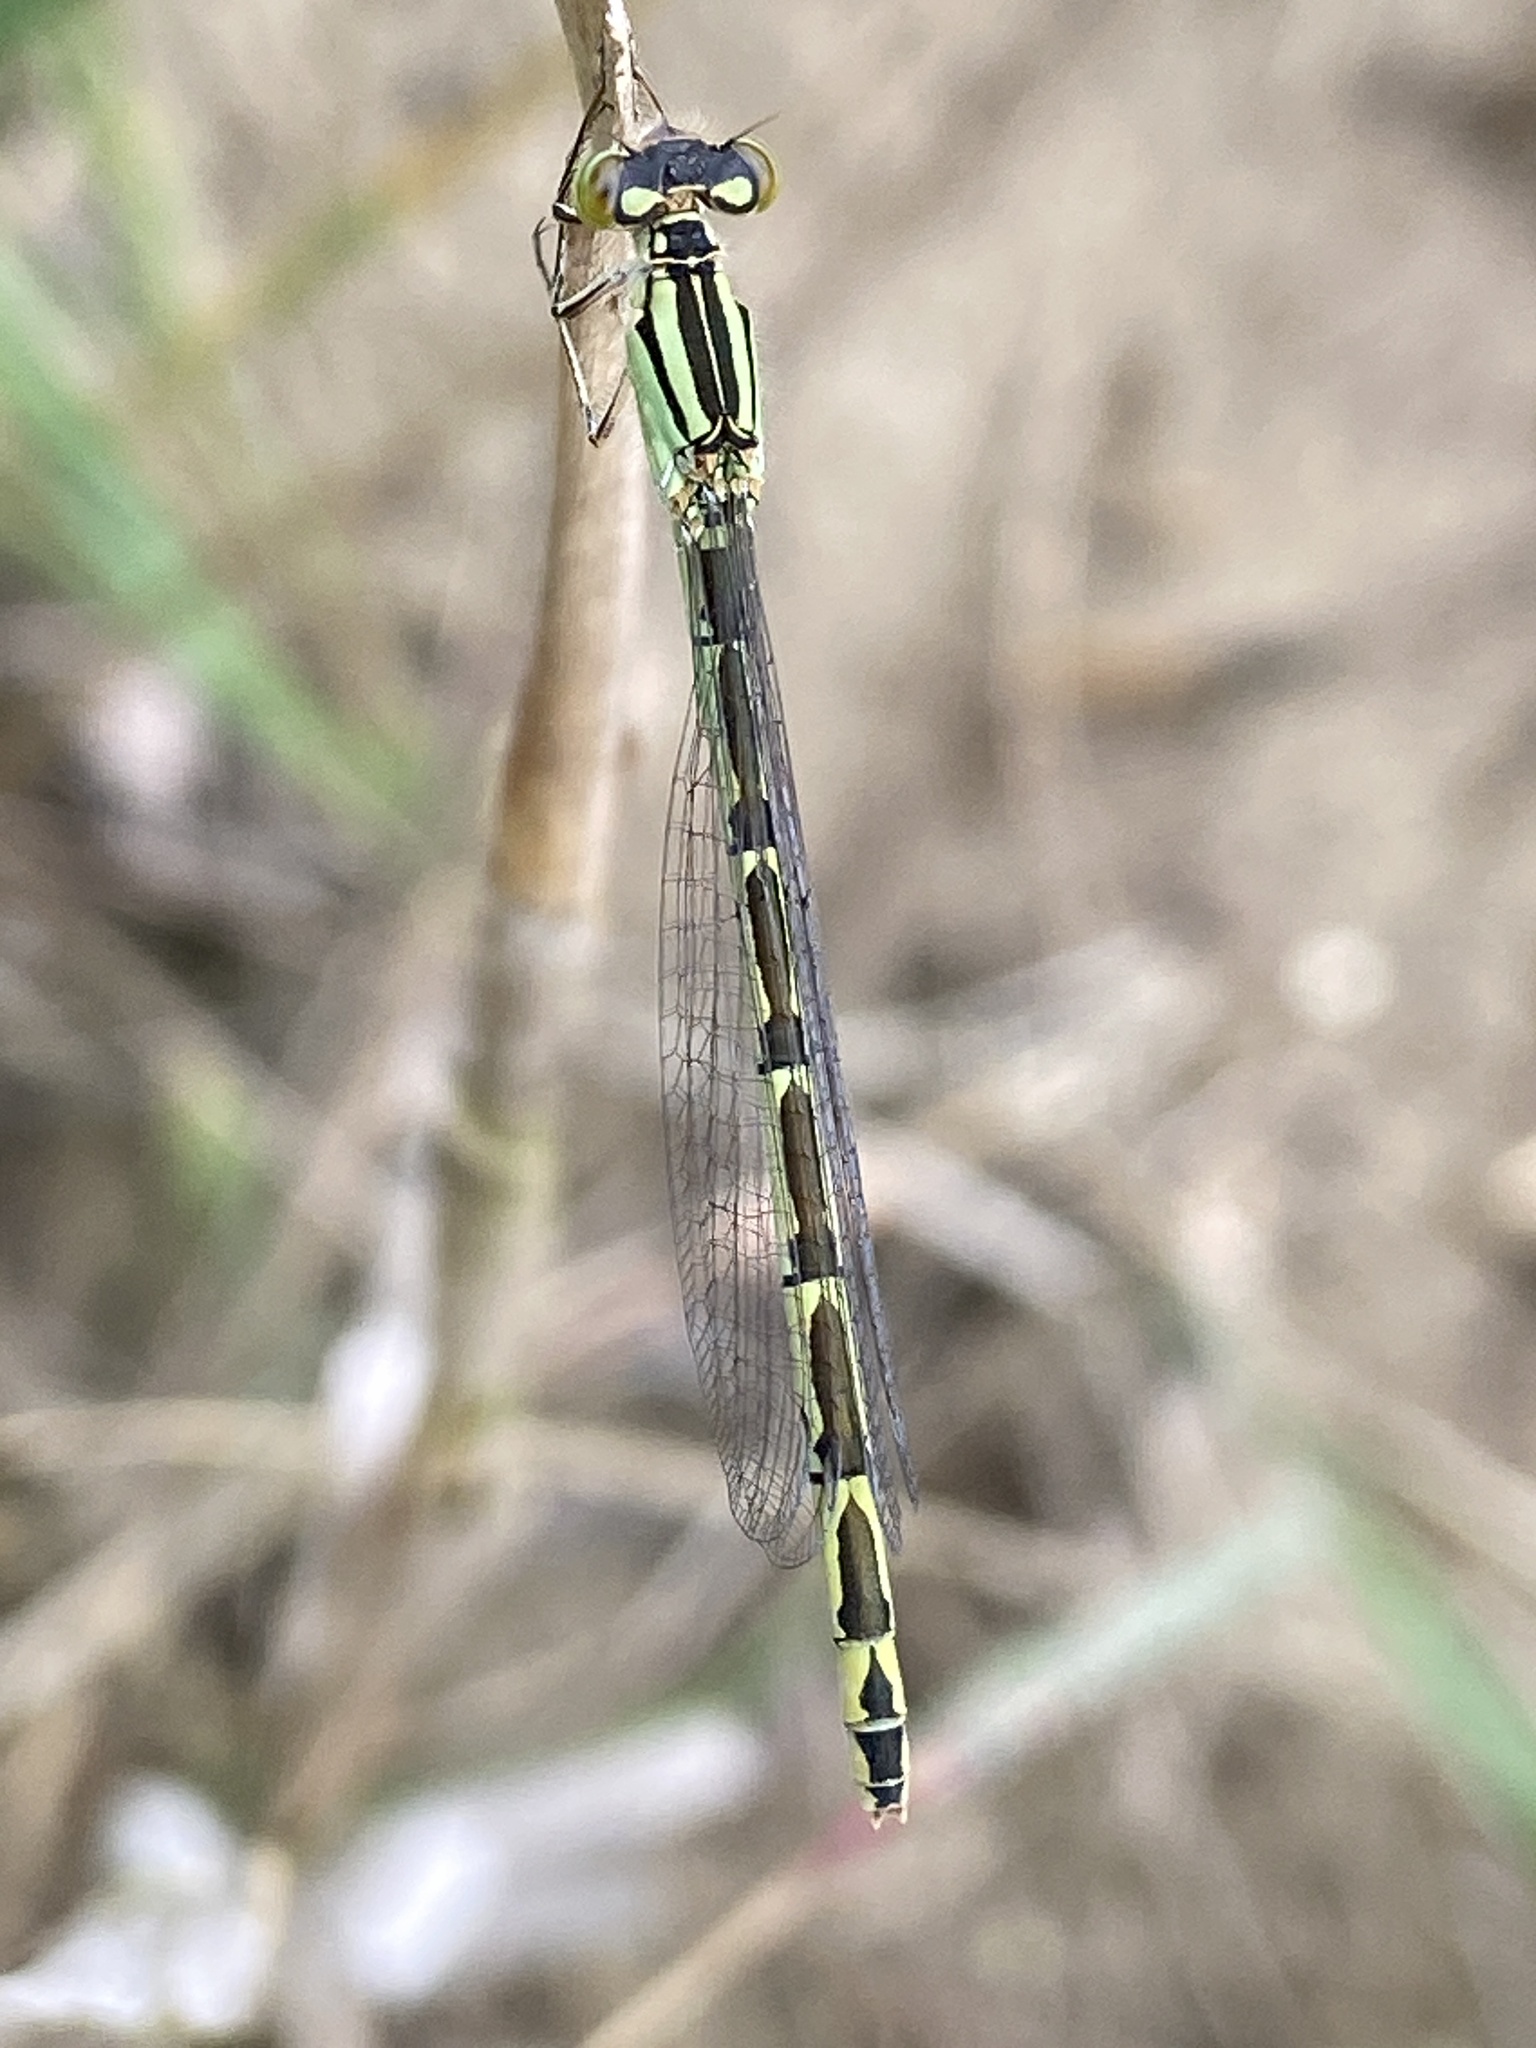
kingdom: Animalia
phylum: Arthropoda
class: Insecta
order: Odonata
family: Coenagrionidae
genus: Enallagma
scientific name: Enallagma cyathigerum
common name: Common blue damselfly
